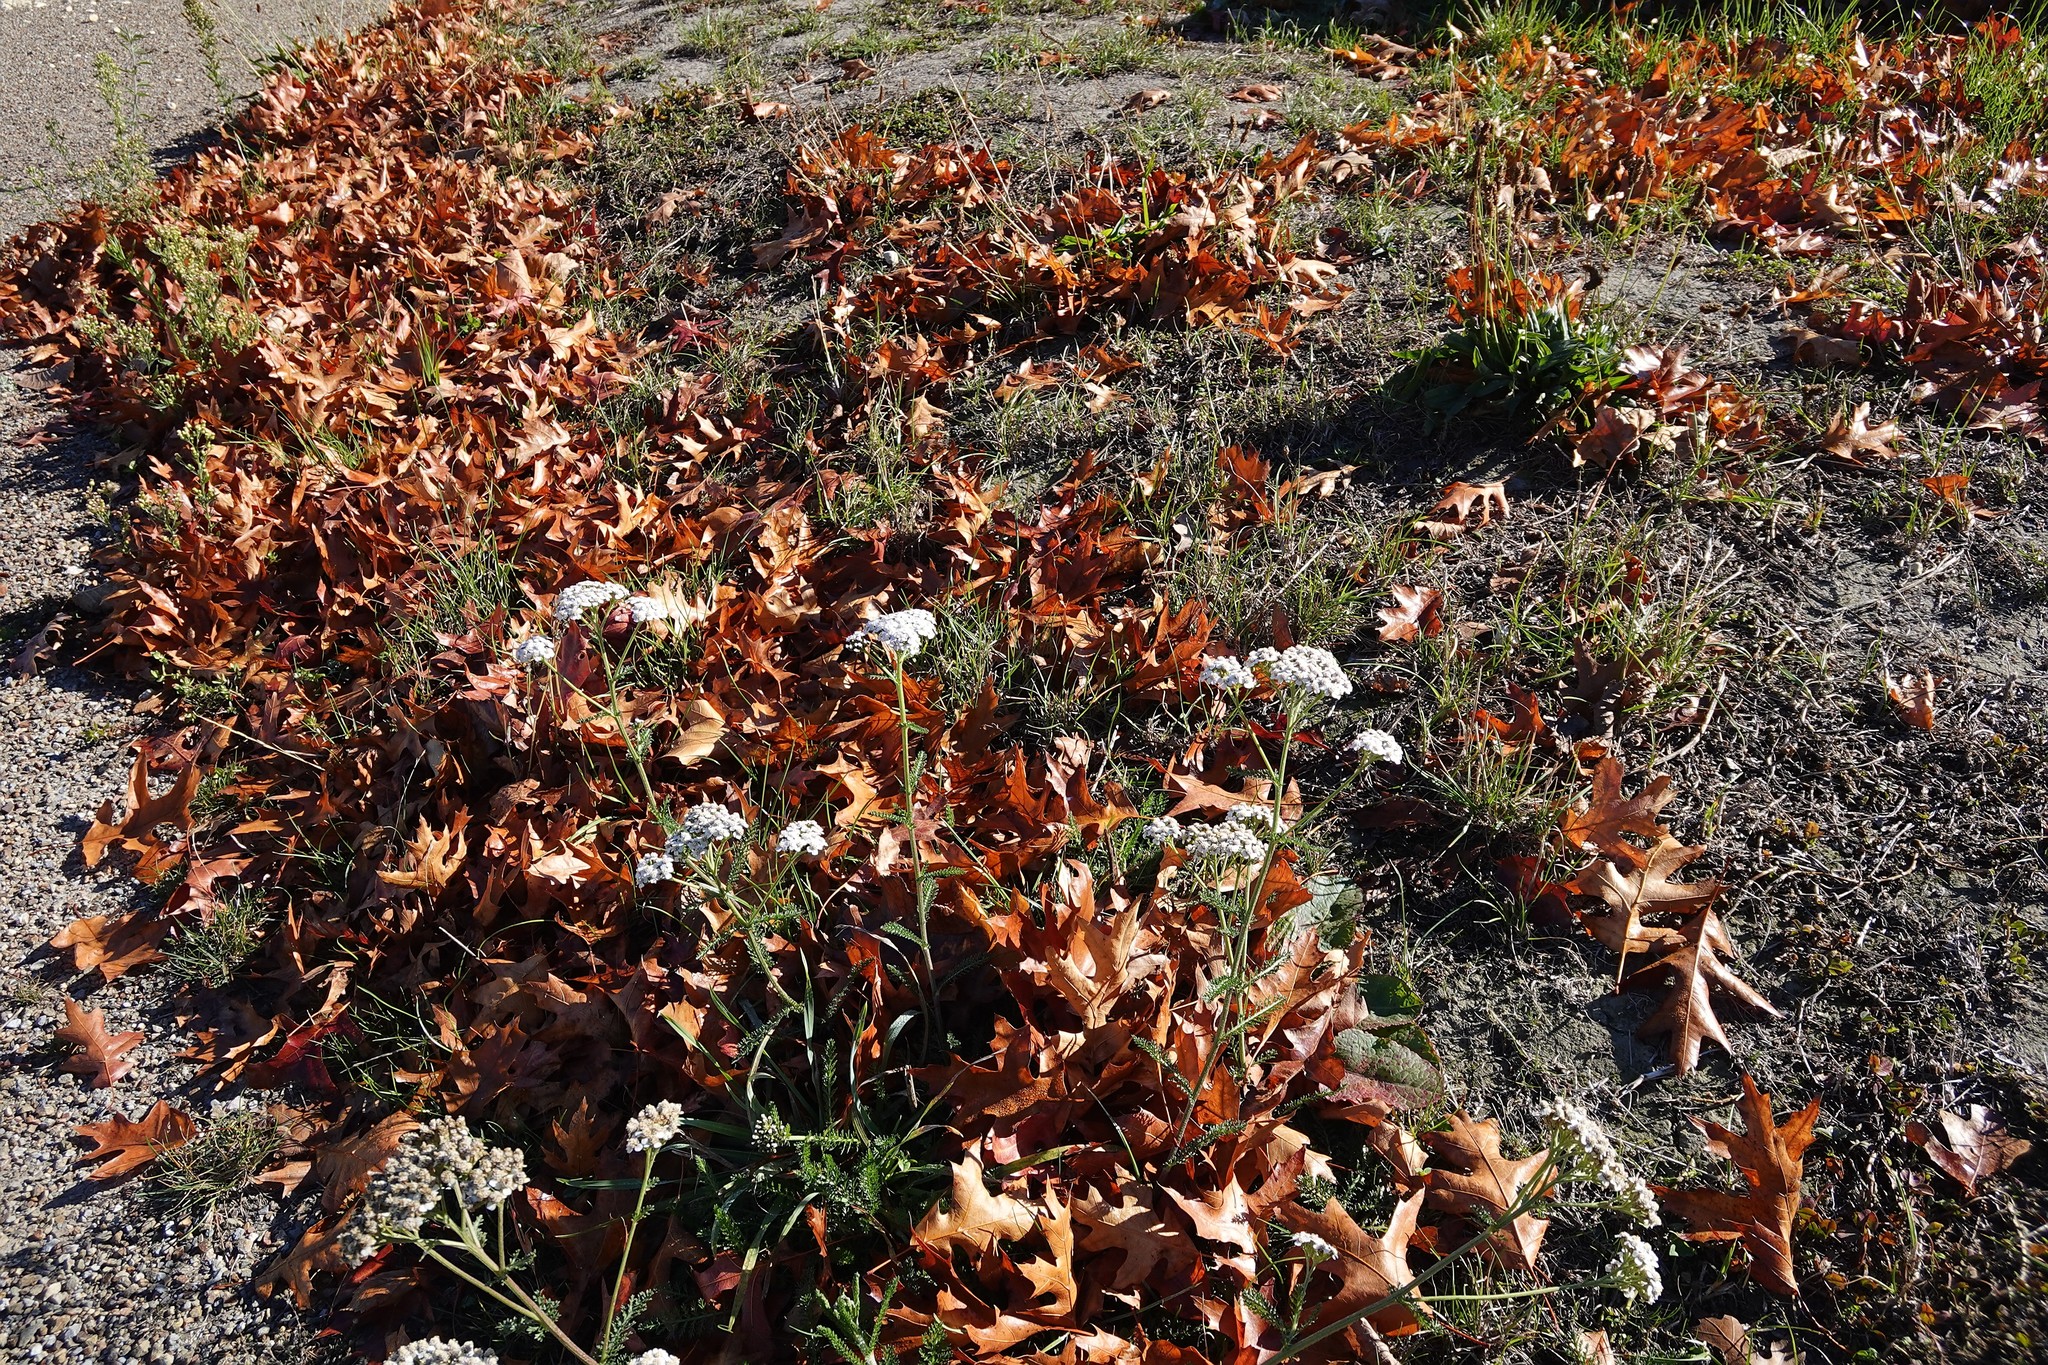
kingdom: Plantae
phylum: Tracheophyta
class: Magnoliopsida
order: Asterales
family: Asteraceae
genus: Achillea
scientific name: Achillea millefolium
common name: Yarrow
